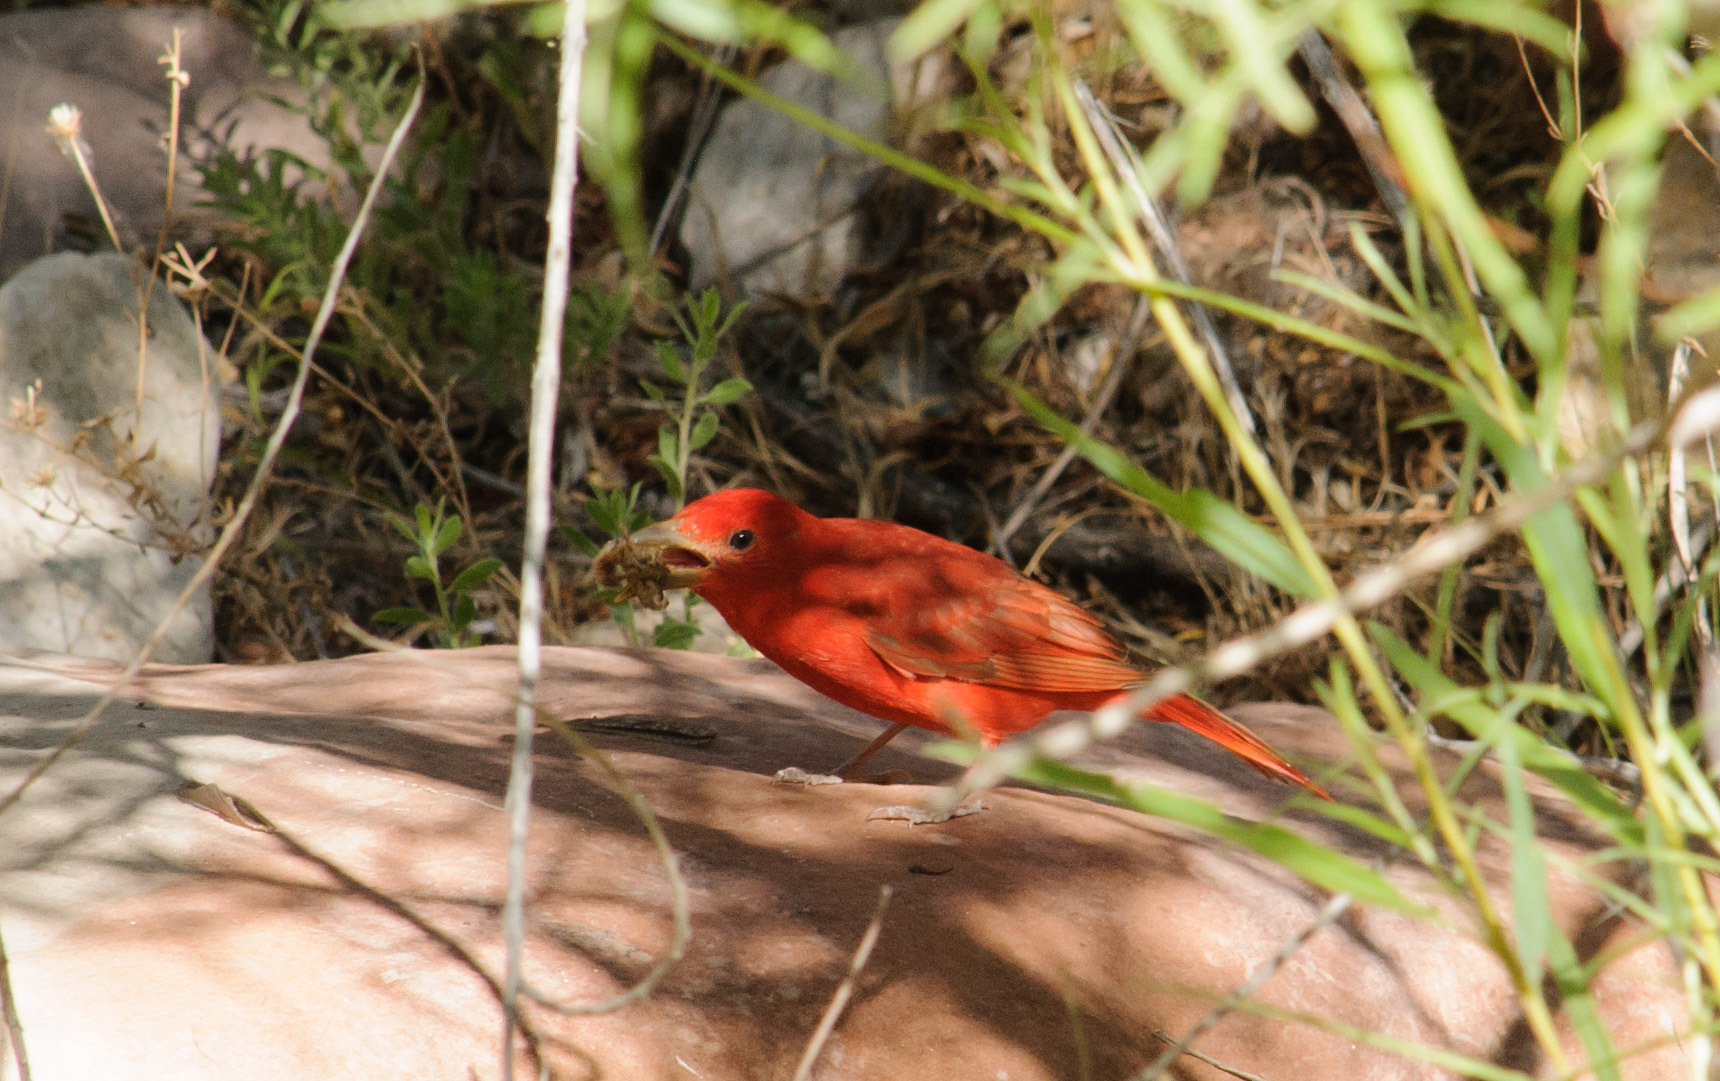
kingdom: Animalia
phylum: Chordata
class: Aves
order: Passeriformes
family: Cardinalidae
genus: Piranga
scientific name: Piranga rubra
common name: Summer tanager
